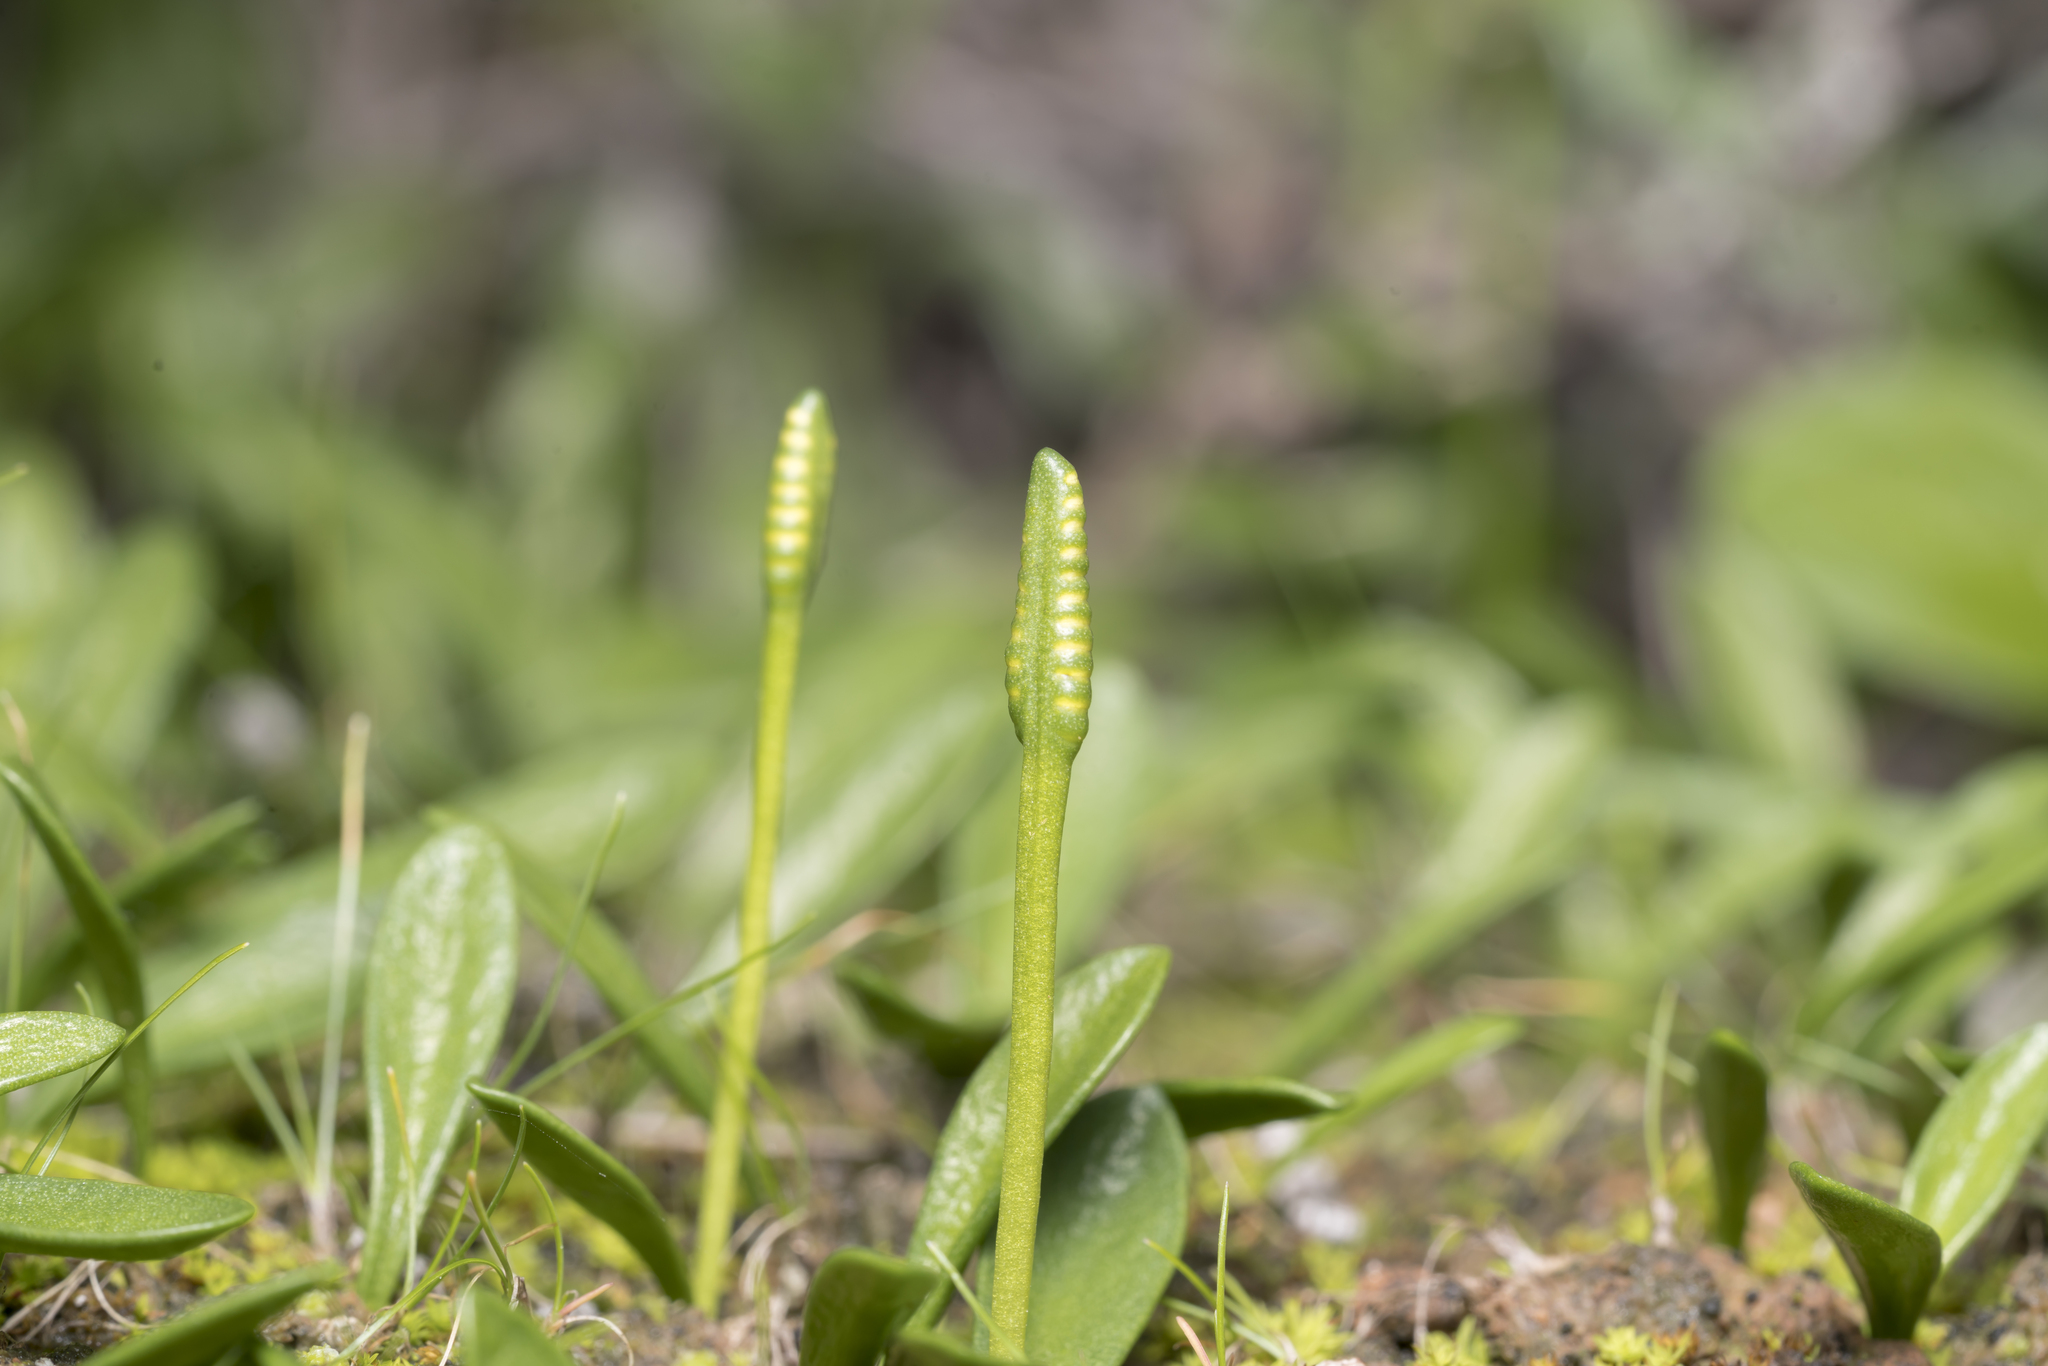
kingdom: Plantae
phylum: Tracheophyta
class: Polypodiopsida
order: Ophioglossales
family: Ophioglossaceae
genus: Ophioglossum
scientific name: Ophioglossum lusitanicum
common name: Least adder's-tongue
